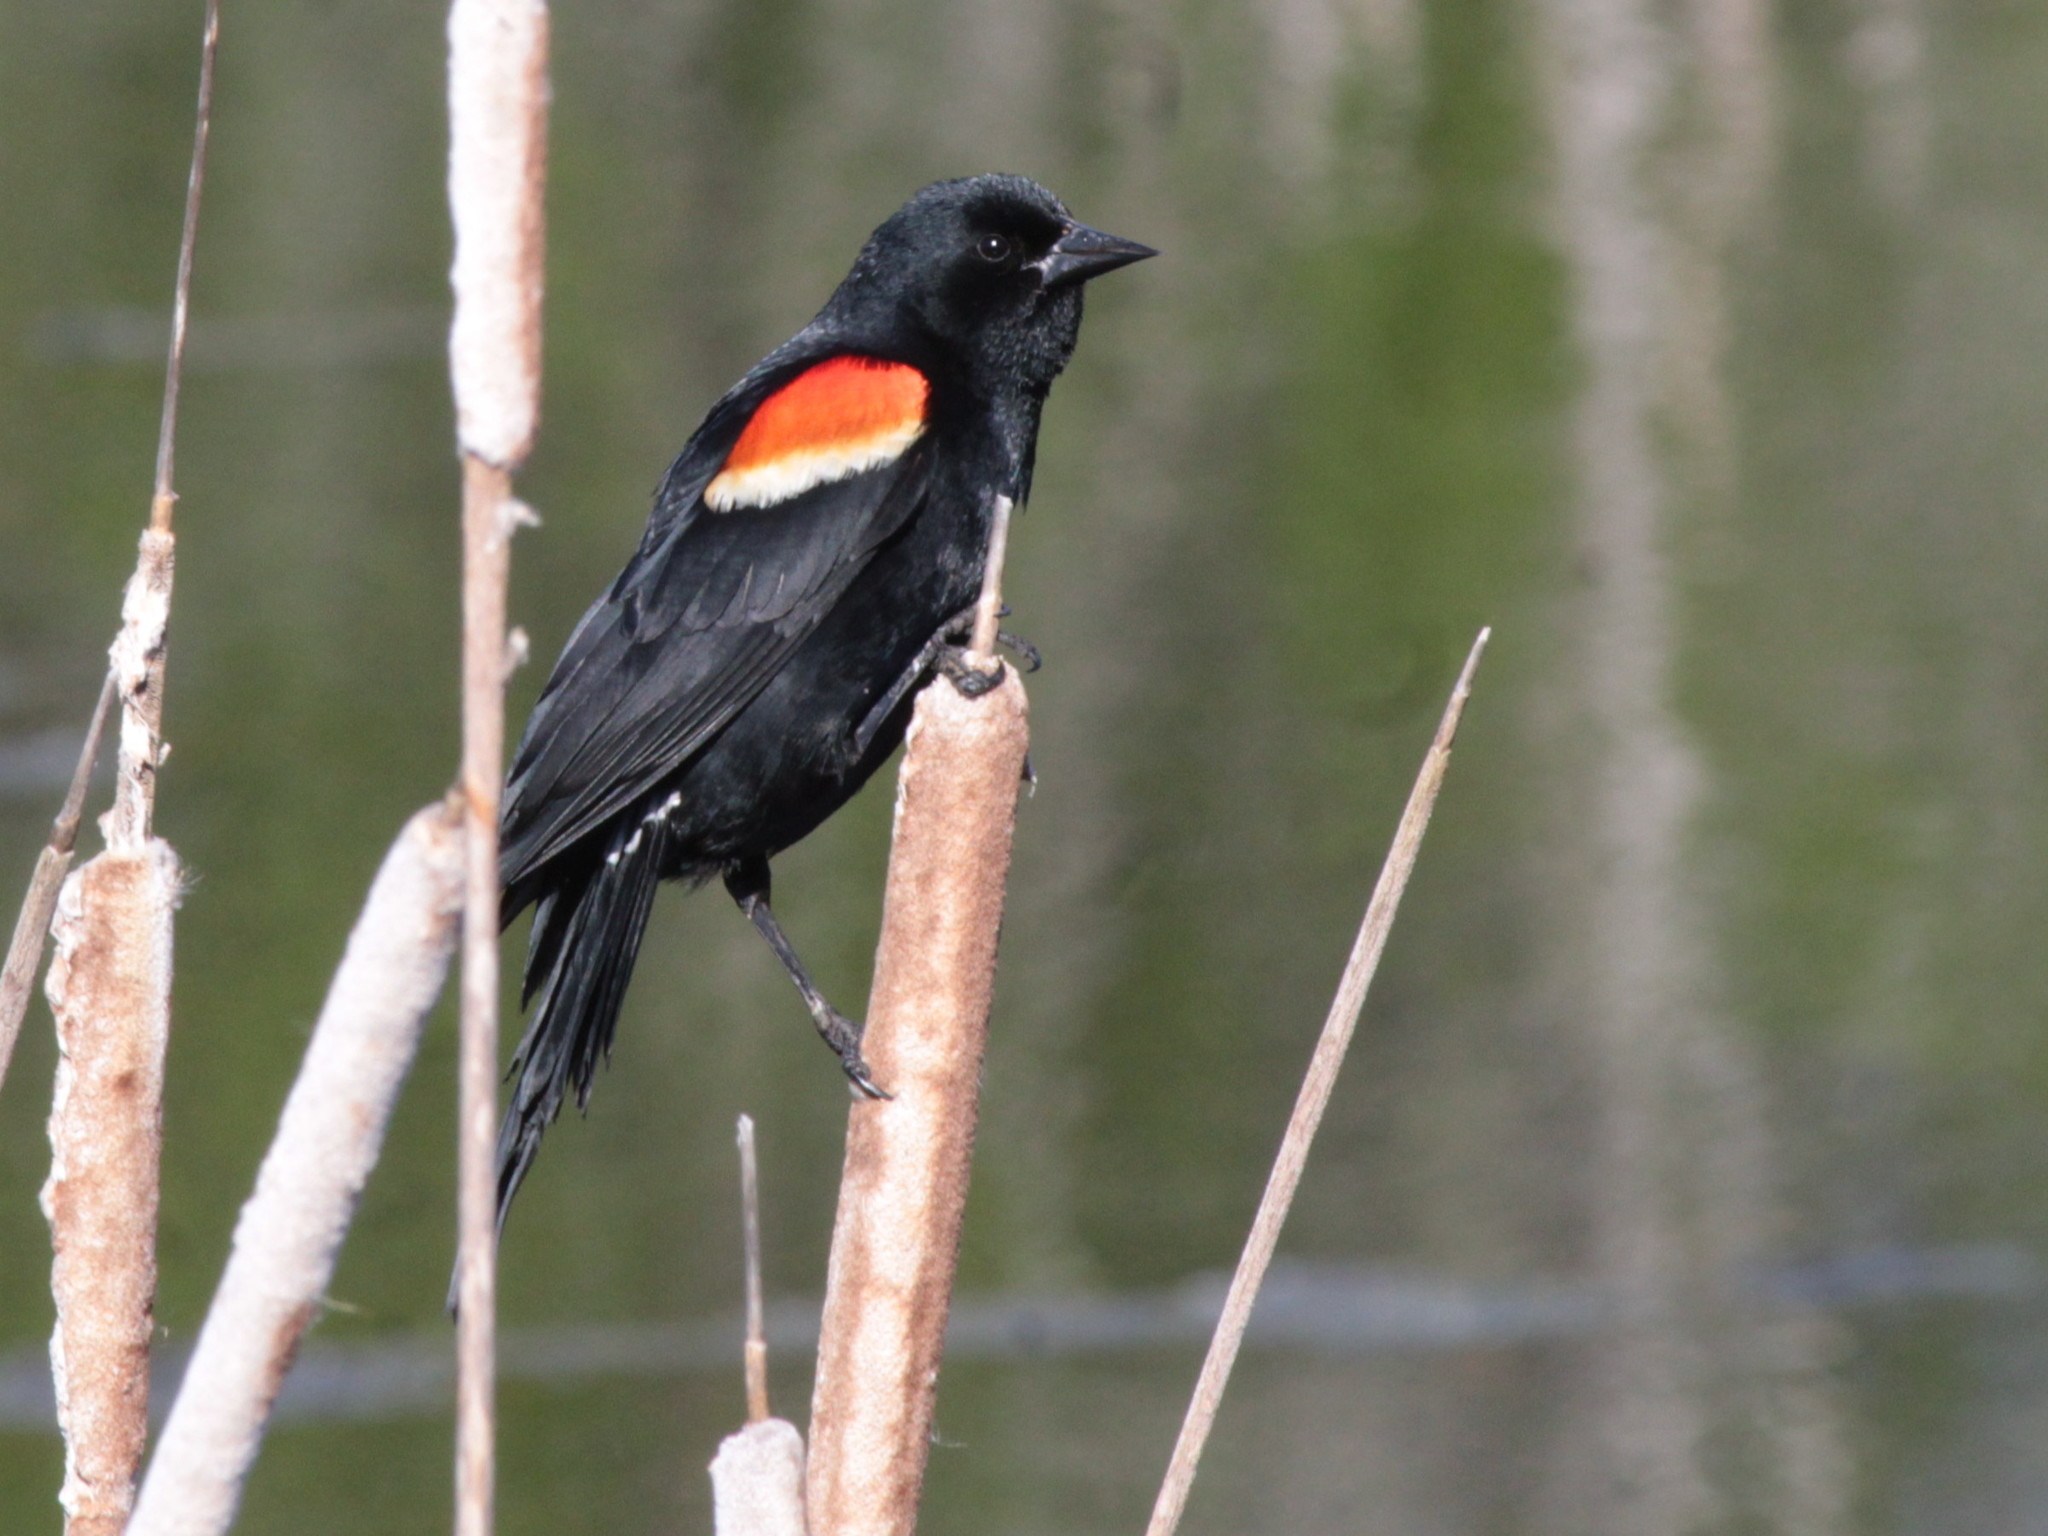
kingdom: Animalia
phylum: Chordata
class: Aves
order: Passeriformes
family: Icteridae
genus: Agelaius
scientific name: Agelaius phoeniceus
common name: Red-winged blackbird
